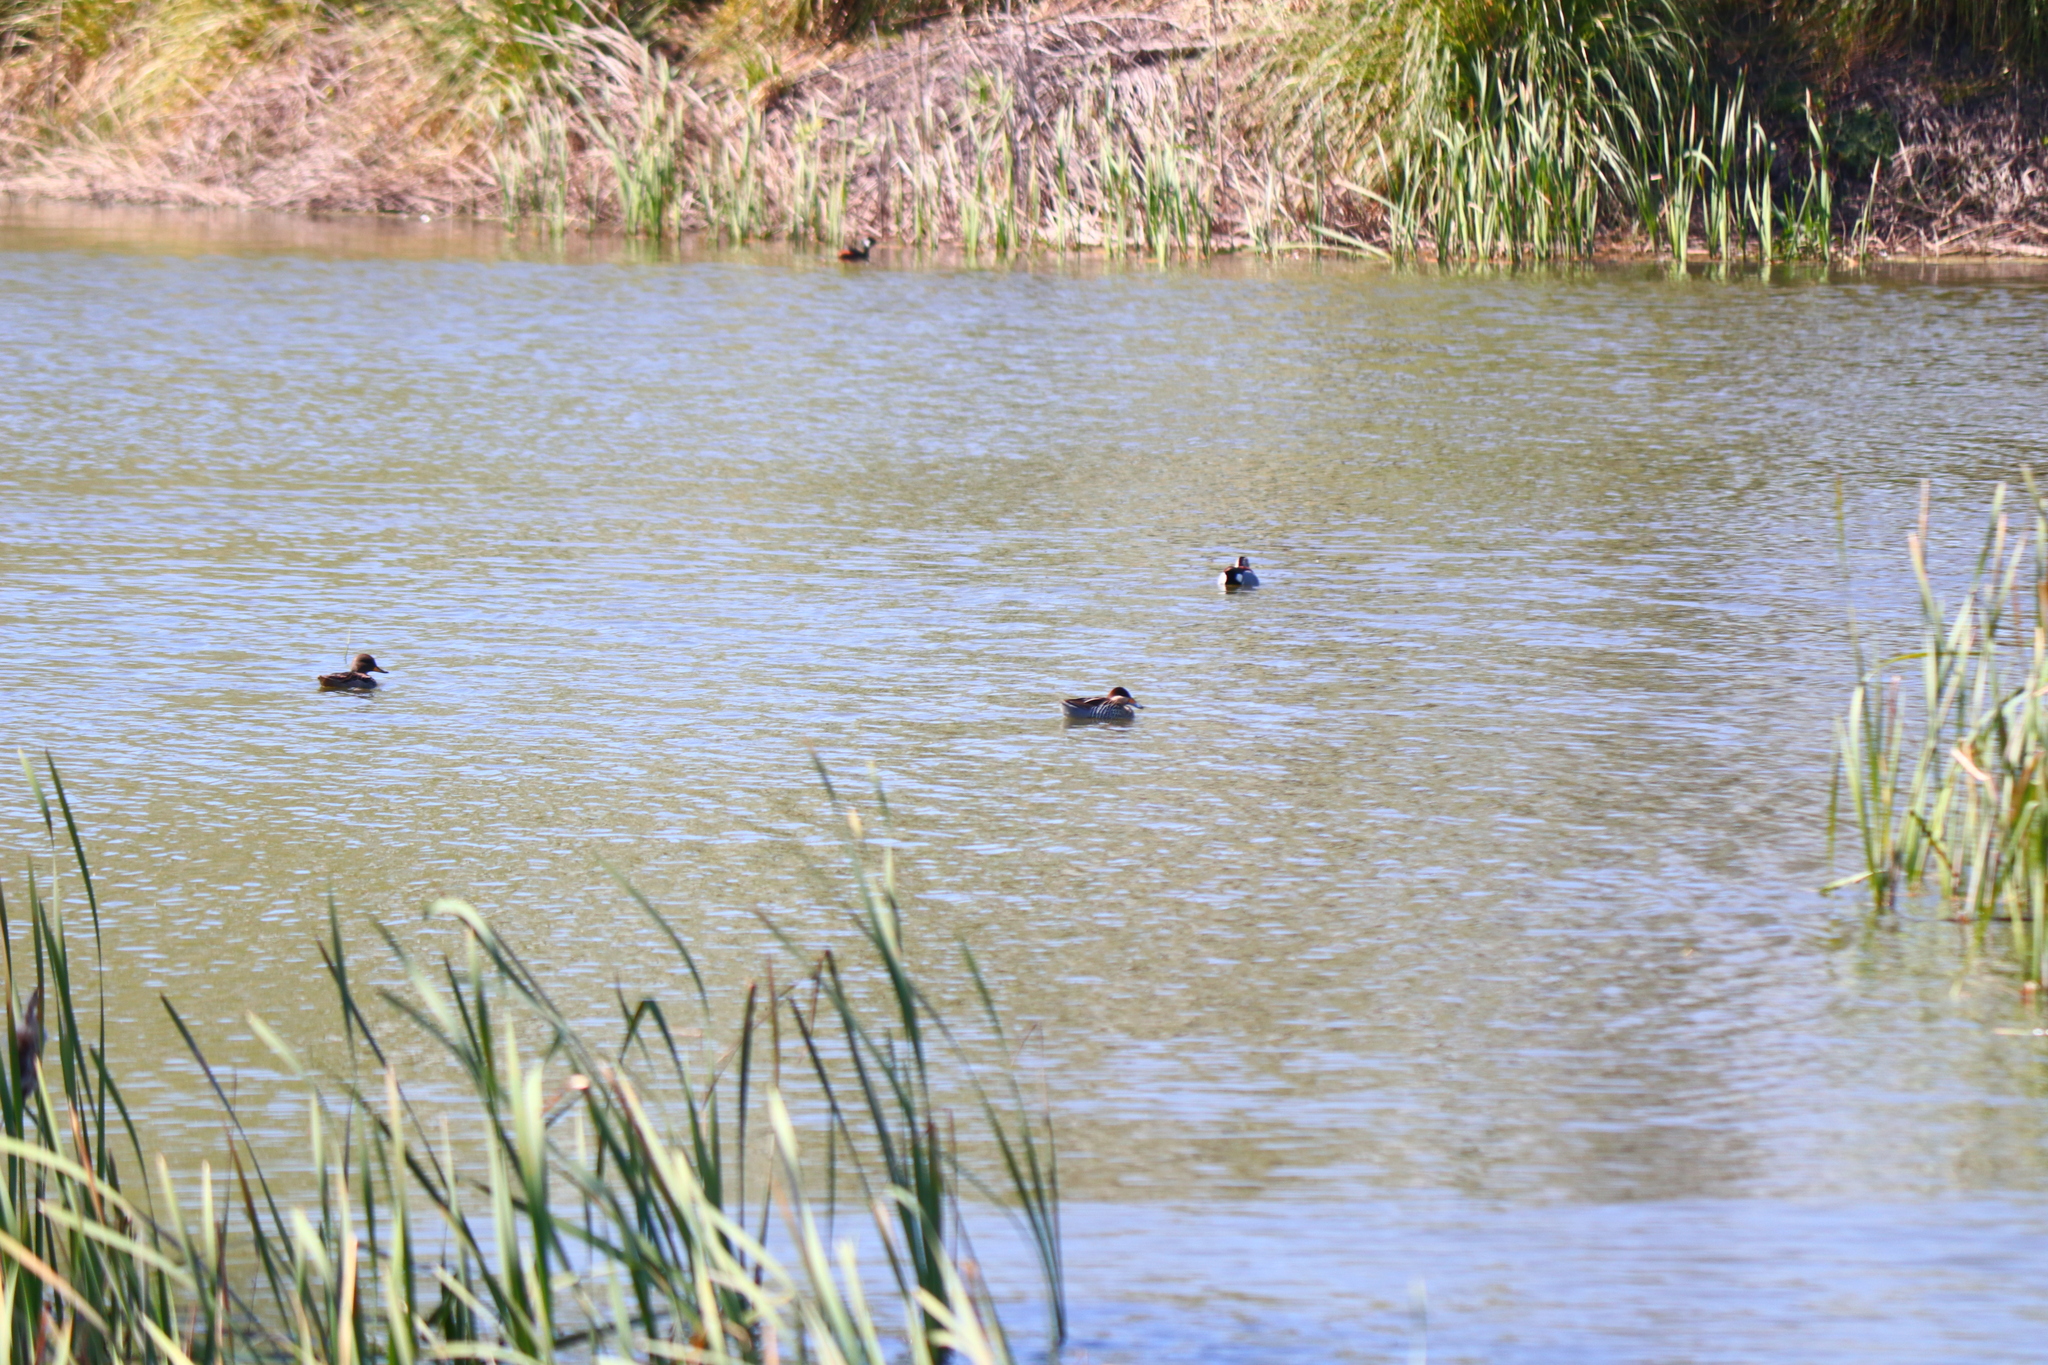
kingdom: Animalia
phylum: Chordata
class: Aves
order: Podicipediformes
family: Podicipedidae
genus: Rollandia
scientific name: Rollandia rolland
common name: White-tufted grebe
